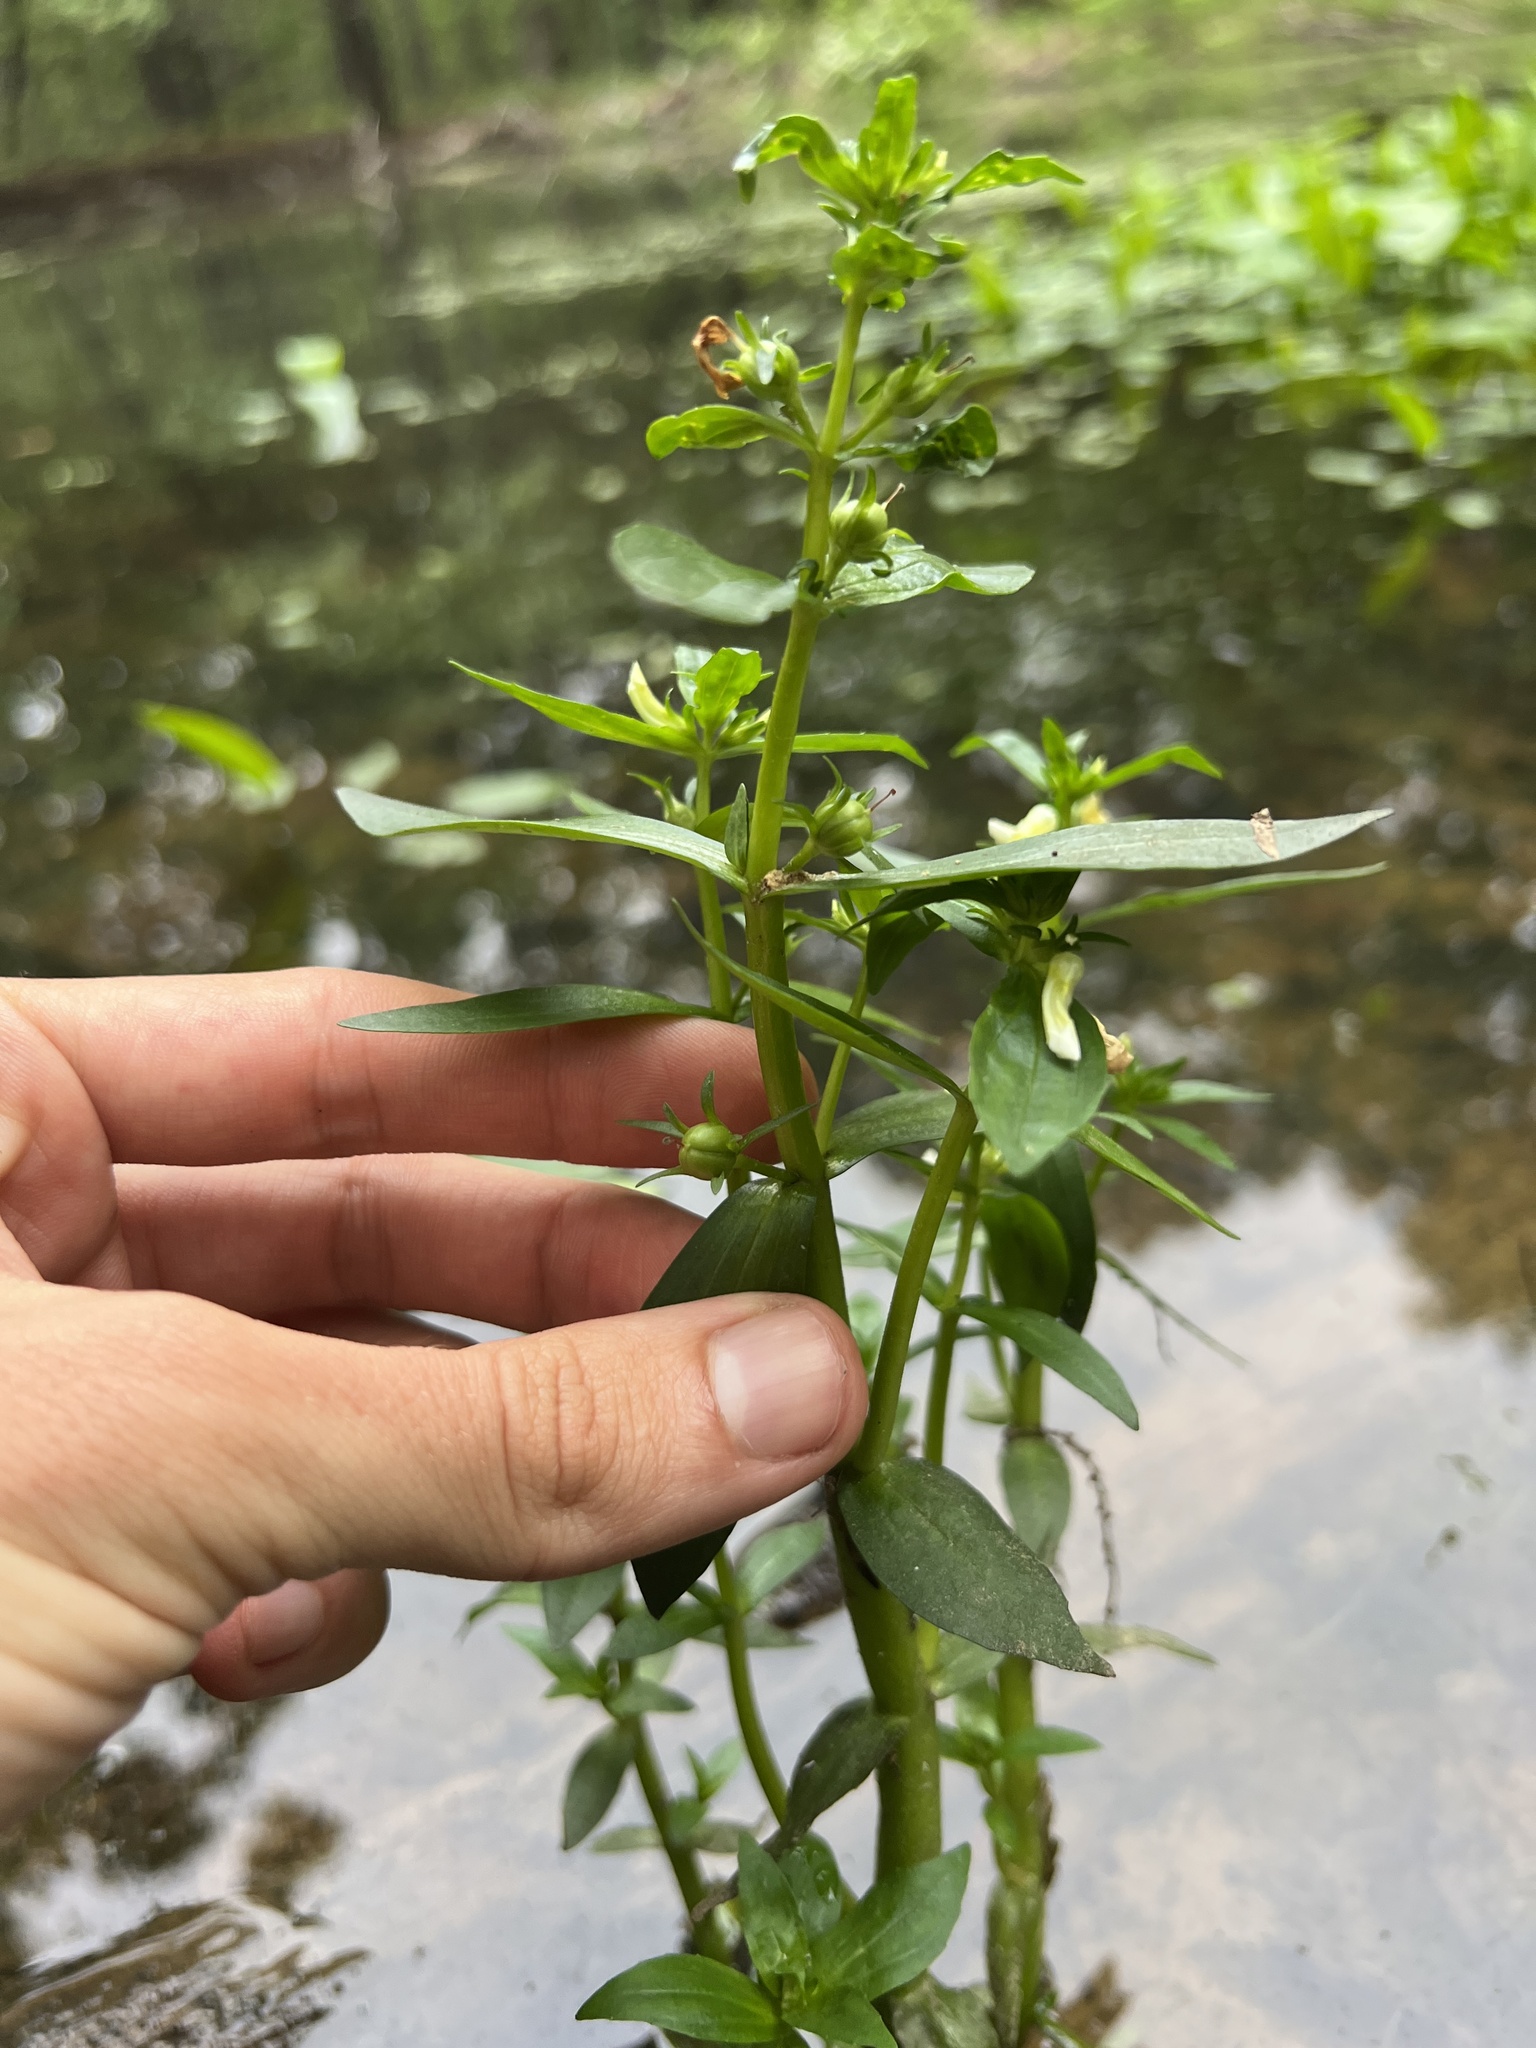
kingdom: Plantae
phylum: Tracheophyta
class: Magnoliopsida
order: Lamiales
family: Plantaginaceae
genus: Gratiola
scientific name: Gratiola virginiana
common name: Roundfruit hedgehyssop
